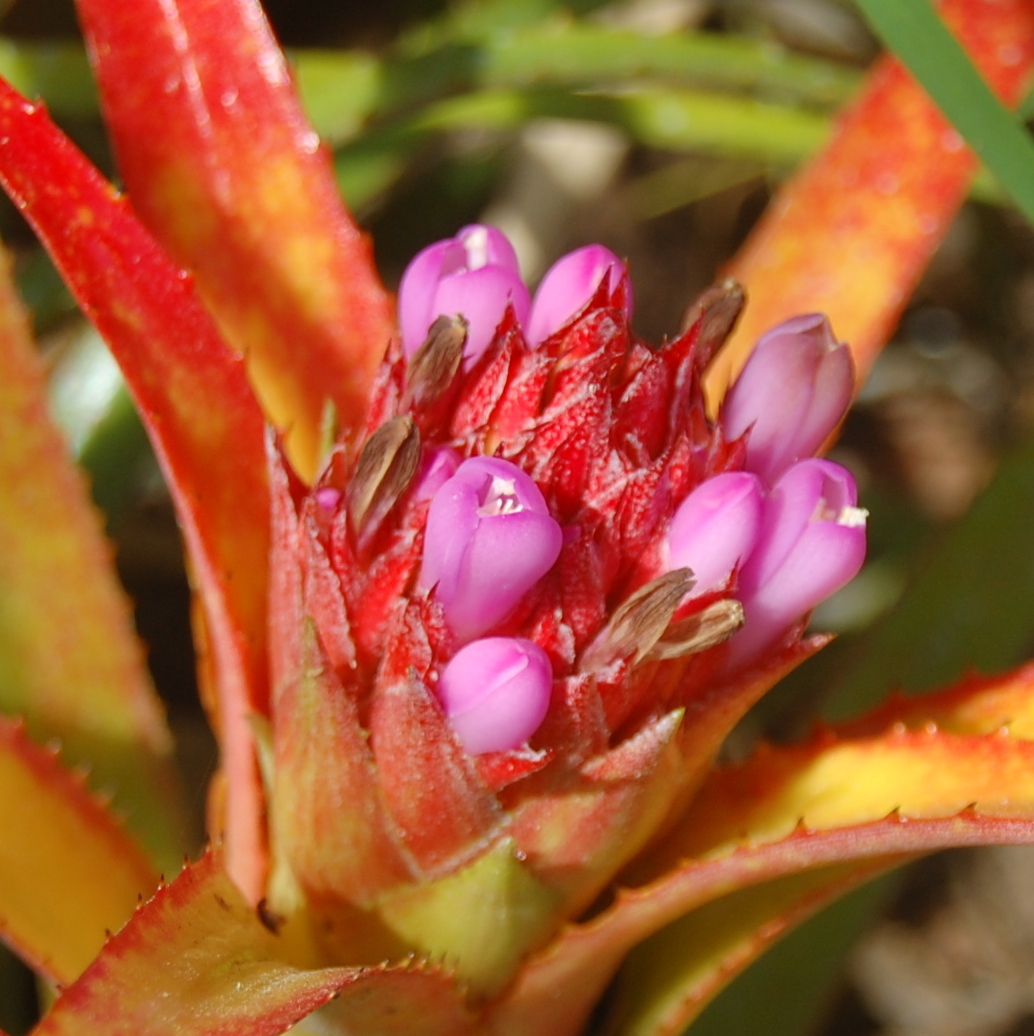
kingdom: Plantae
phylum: Tracheophyta
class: Liliopsida
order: Poales
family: Bromeliaceae
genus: Aechmea
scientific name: Aechmea recurvata
